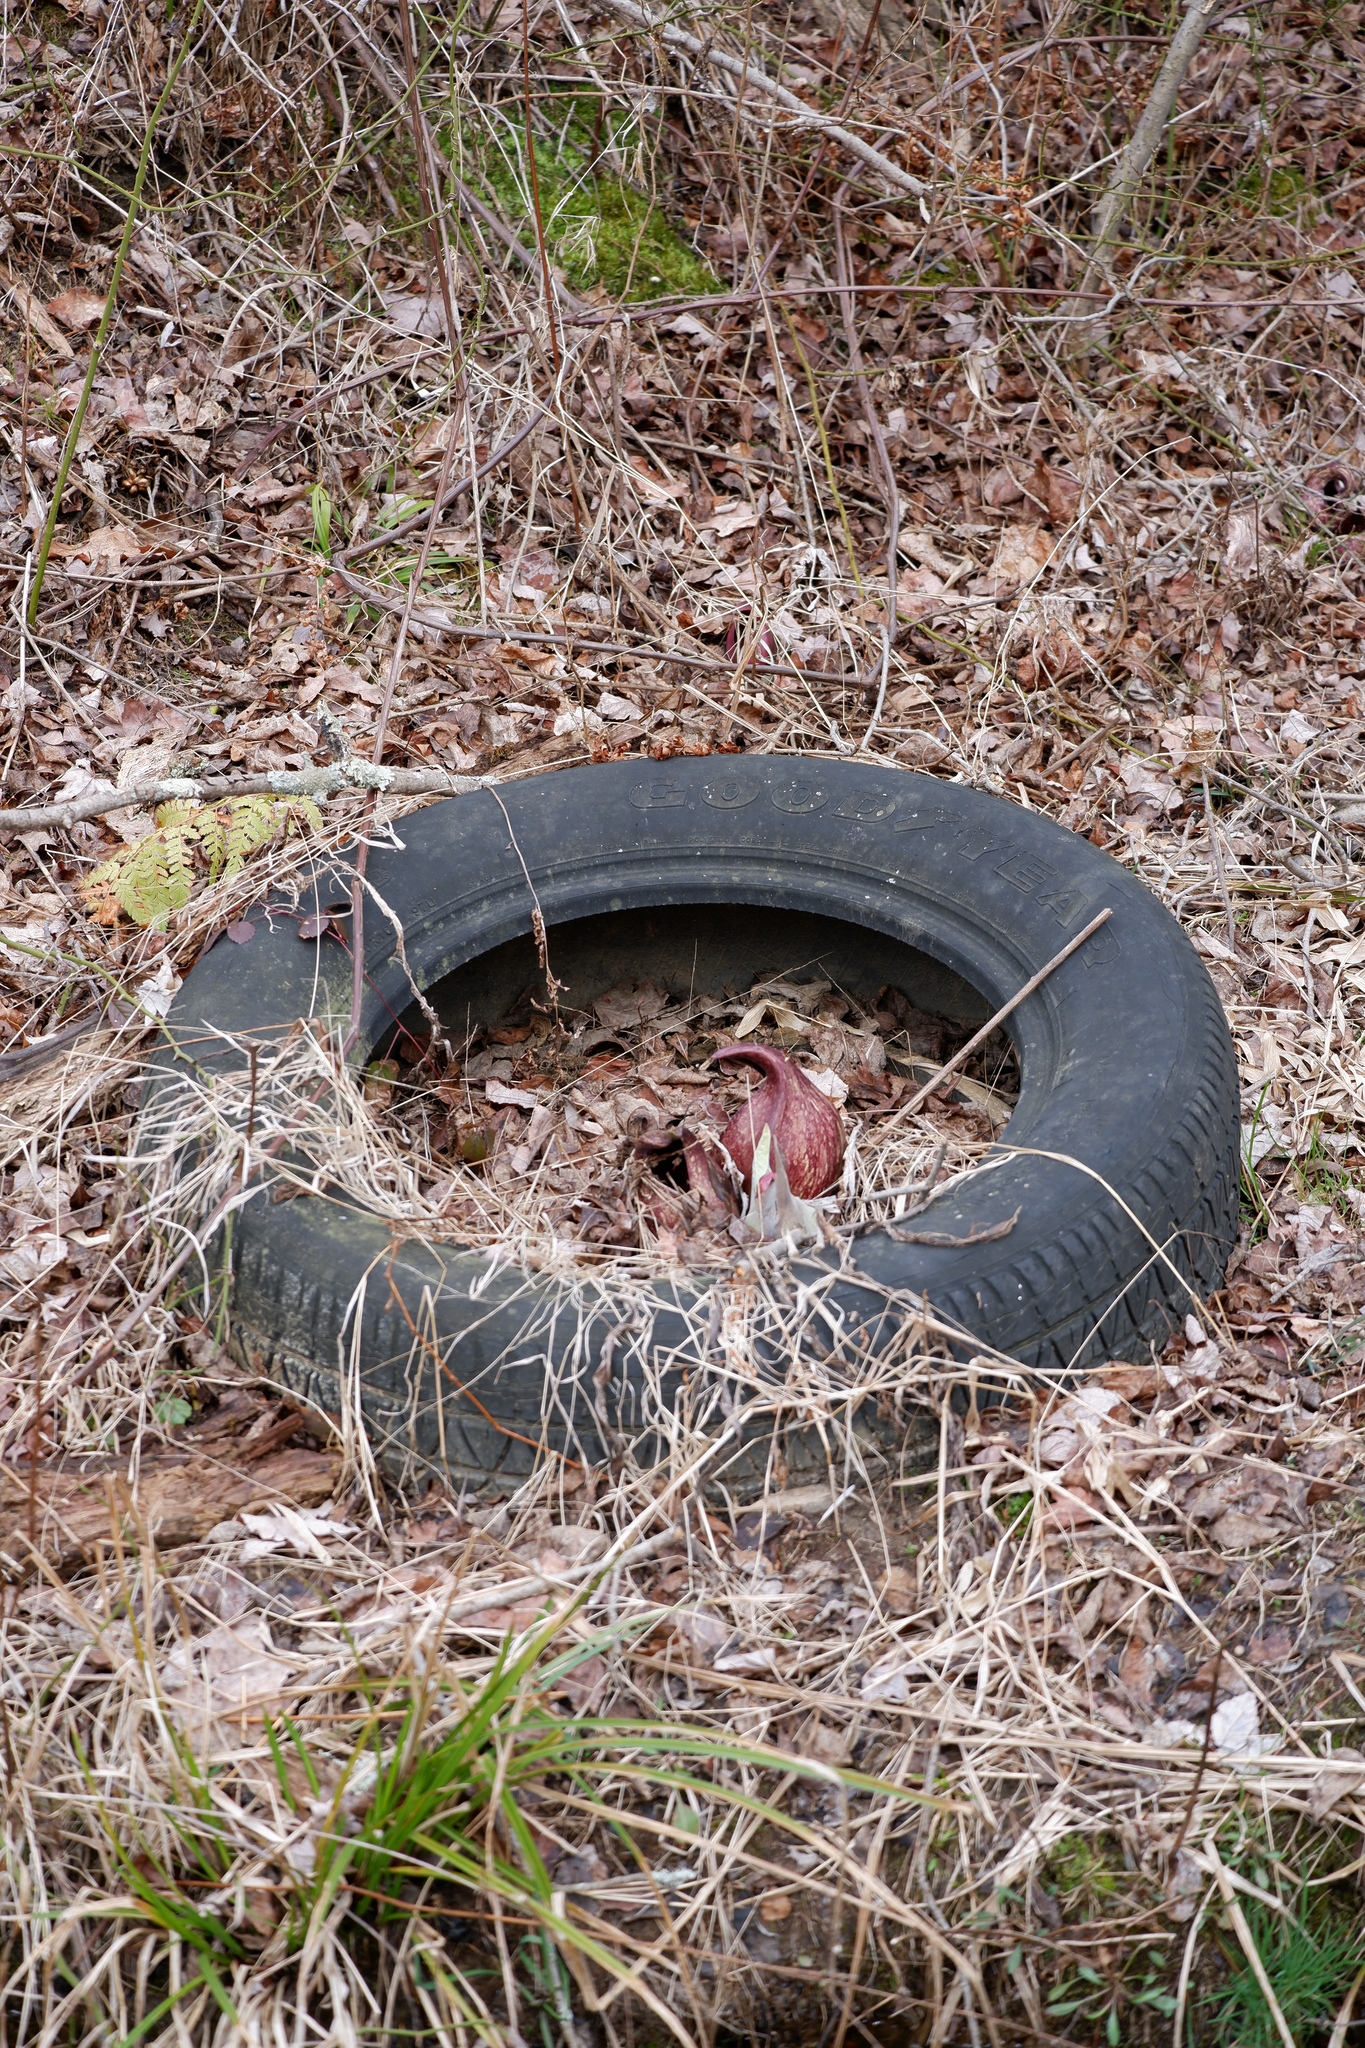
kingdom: Plantae
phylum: Tracheophyta
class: Liliopsida
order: Alismatales
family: Araceae
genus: Symplocarpus
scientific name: Symplocarpus foetidus
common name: Eastern skunk cabbage
